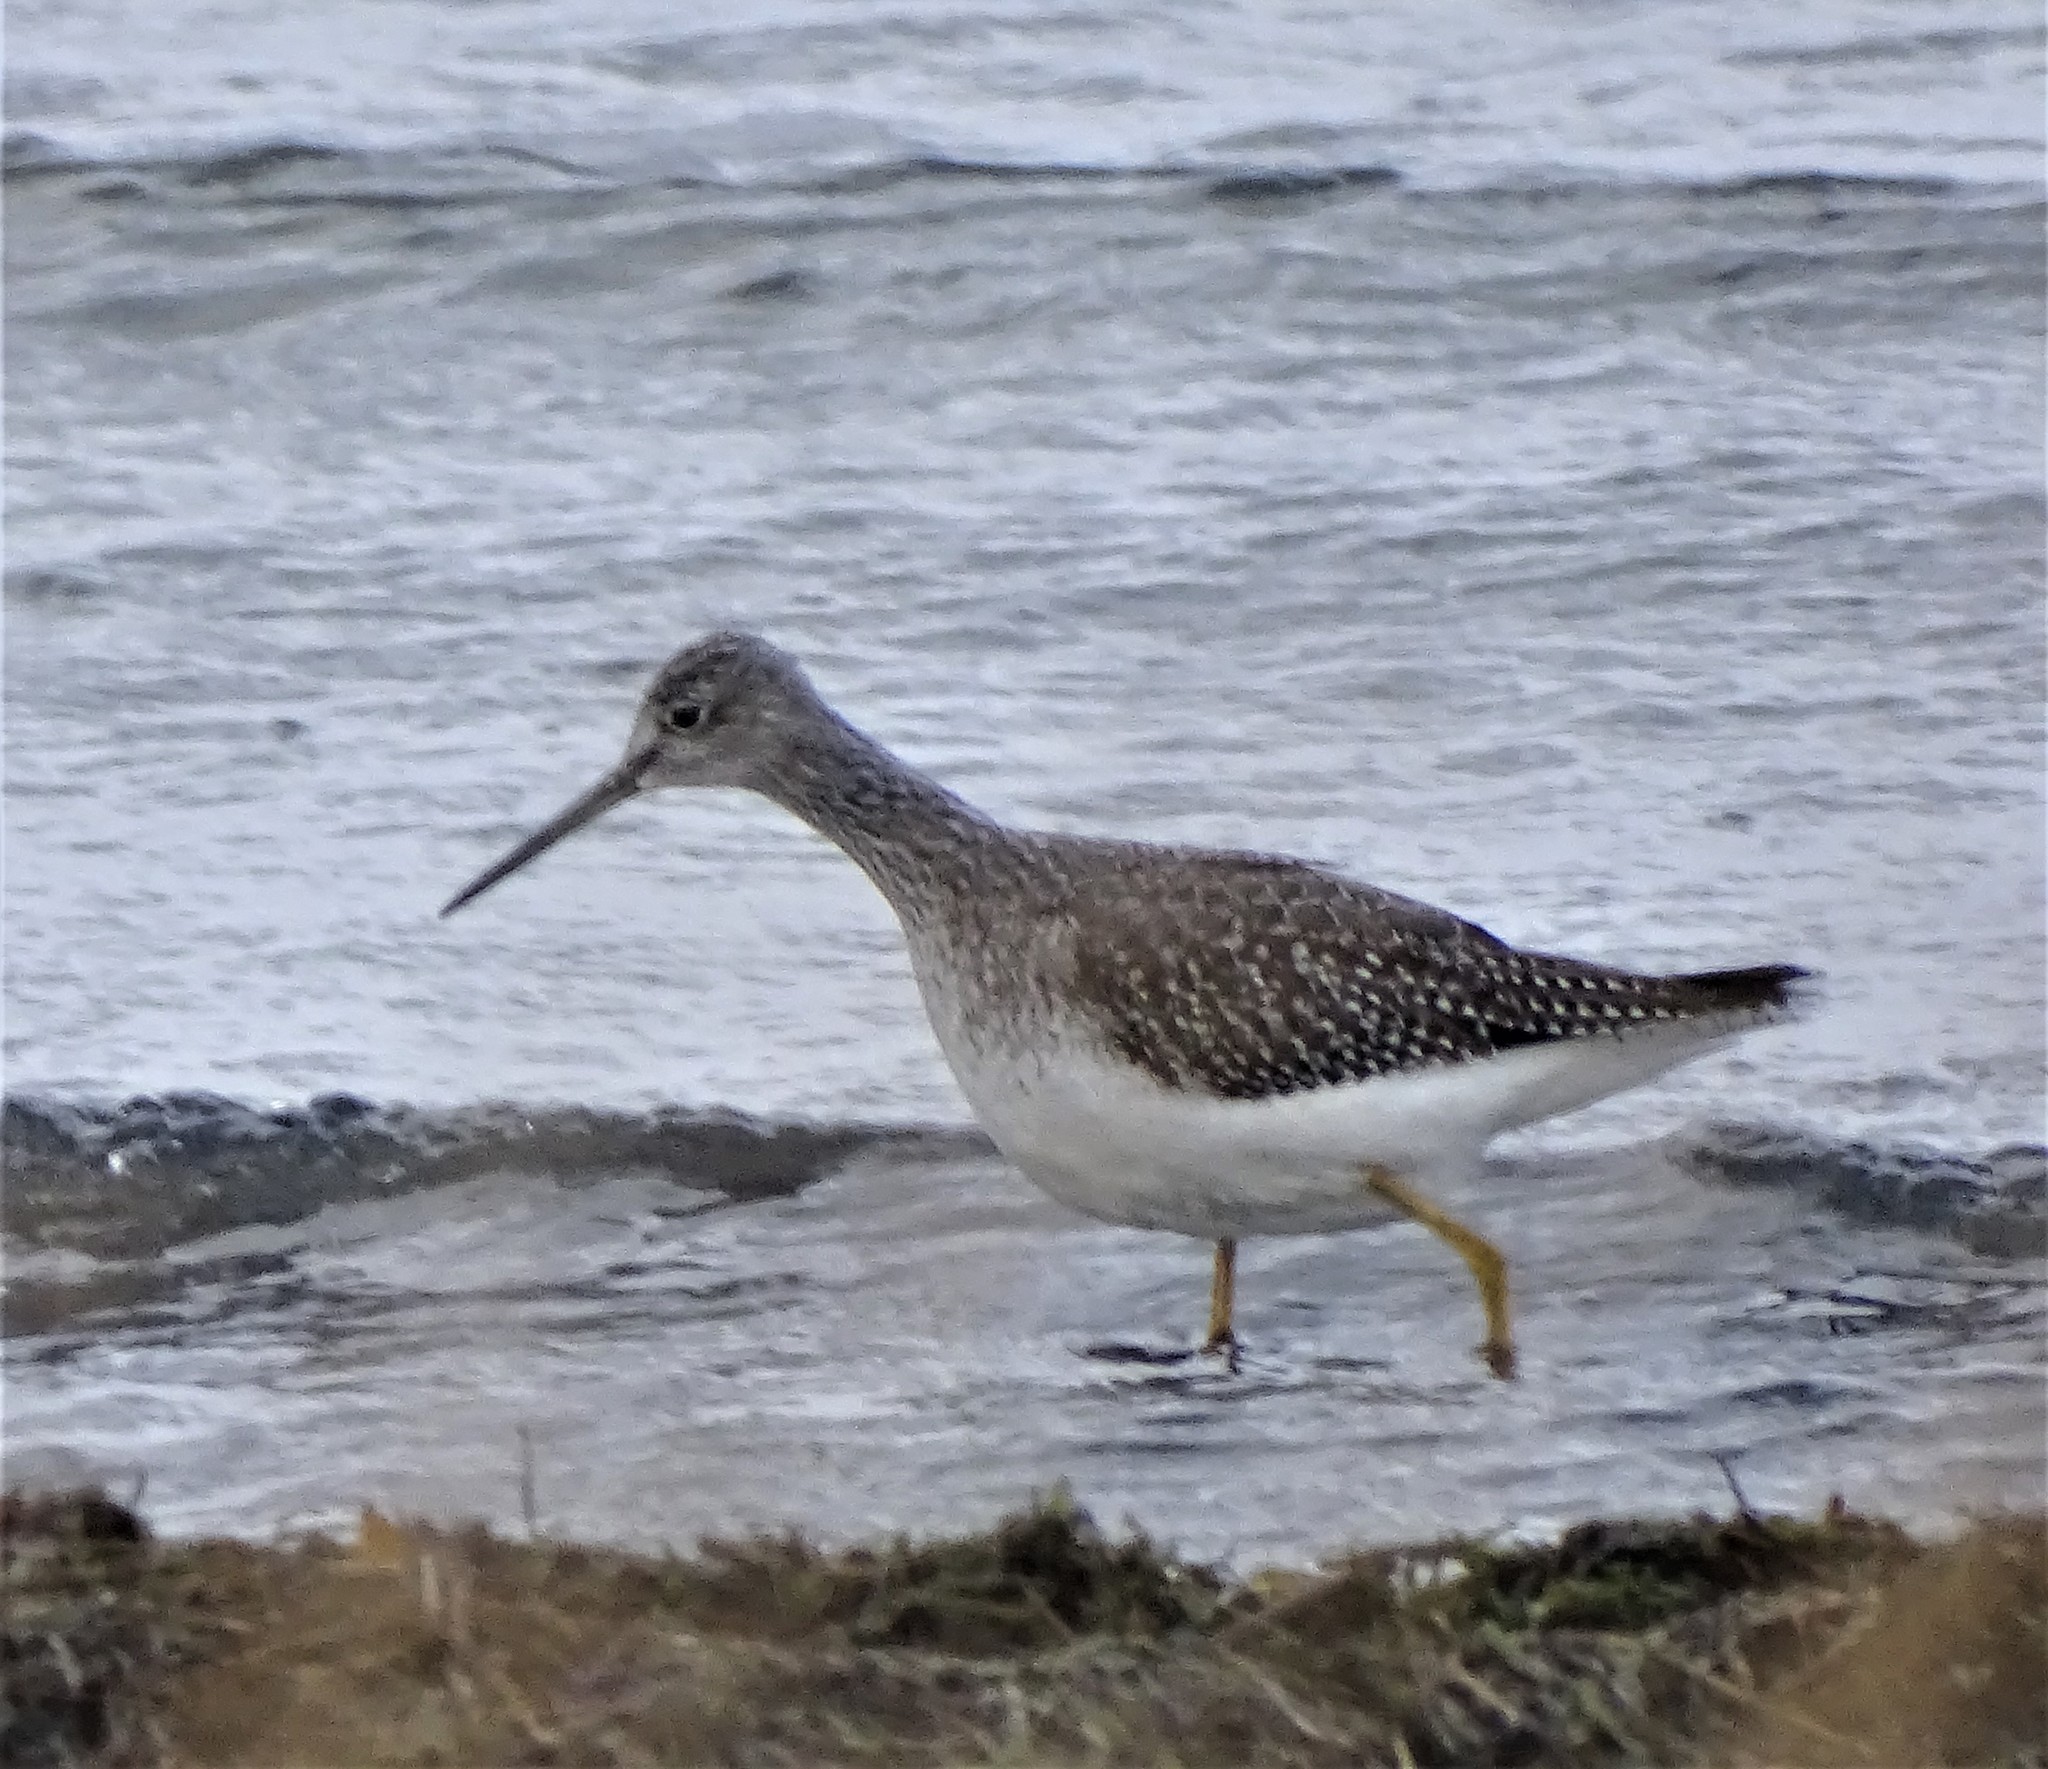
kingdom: Animalia
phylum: Chordata
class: Aves
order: Charadriiformes
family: Scolopacidae
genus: Tringa
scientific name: Tringa melanoleuca
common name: Greater yellowlegs
